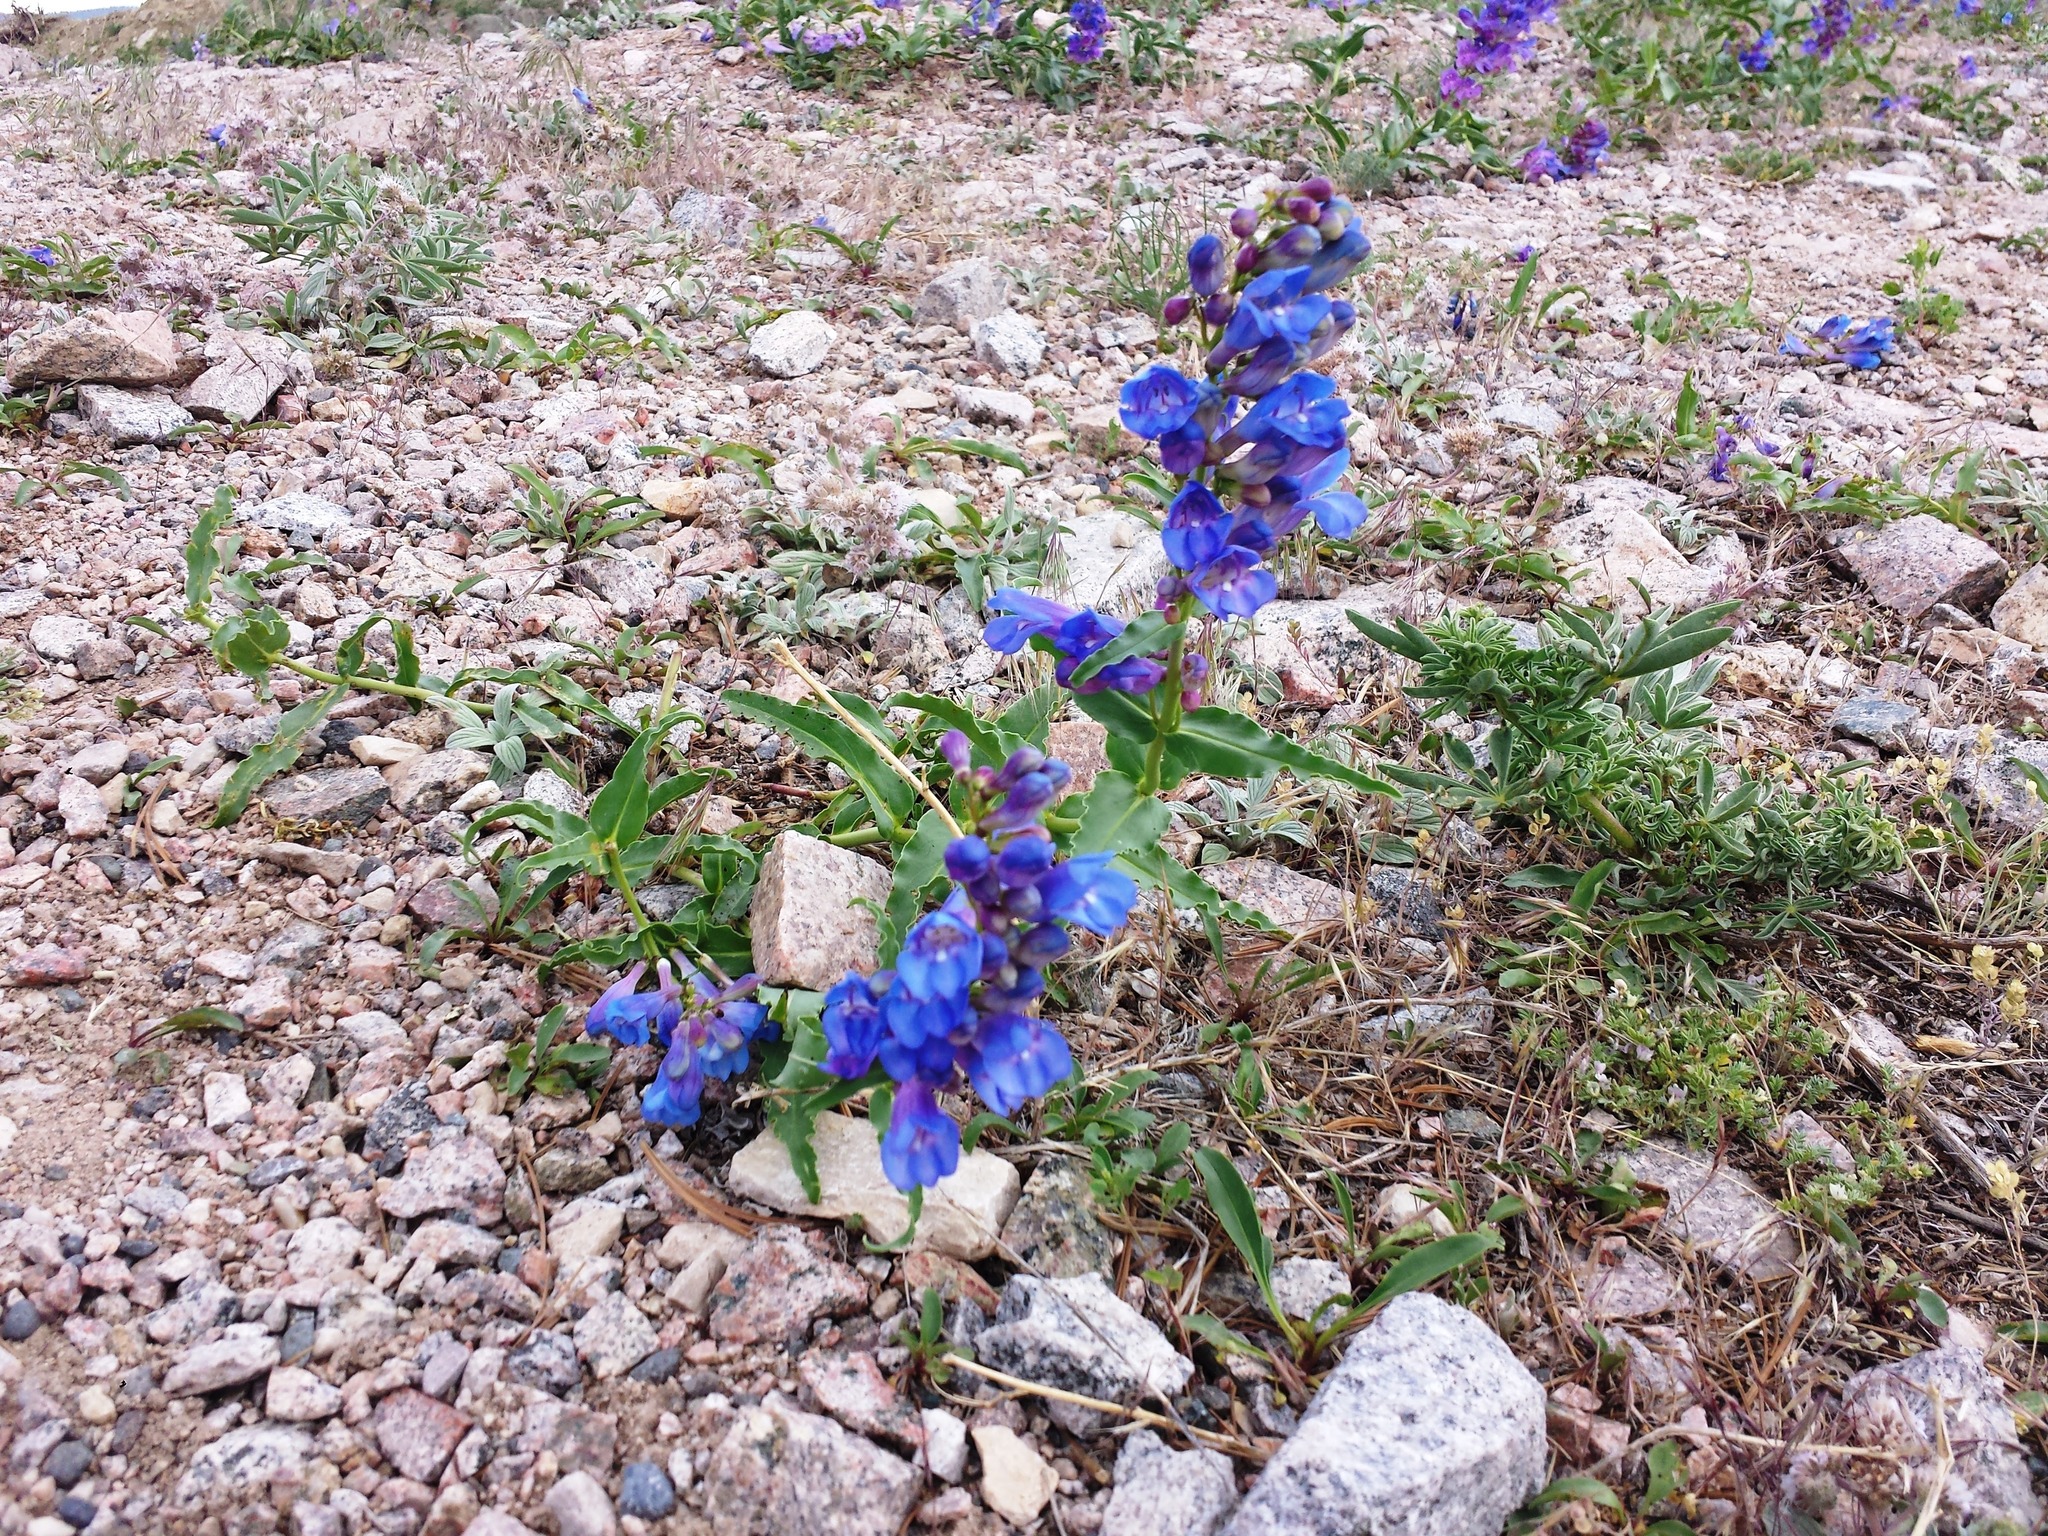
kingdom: Plantae
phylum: Tracheophyta
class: Magnoliopsida
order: Lamiales
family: Plantaginaceae
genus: Penstemon
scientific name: Penstemon glaber
